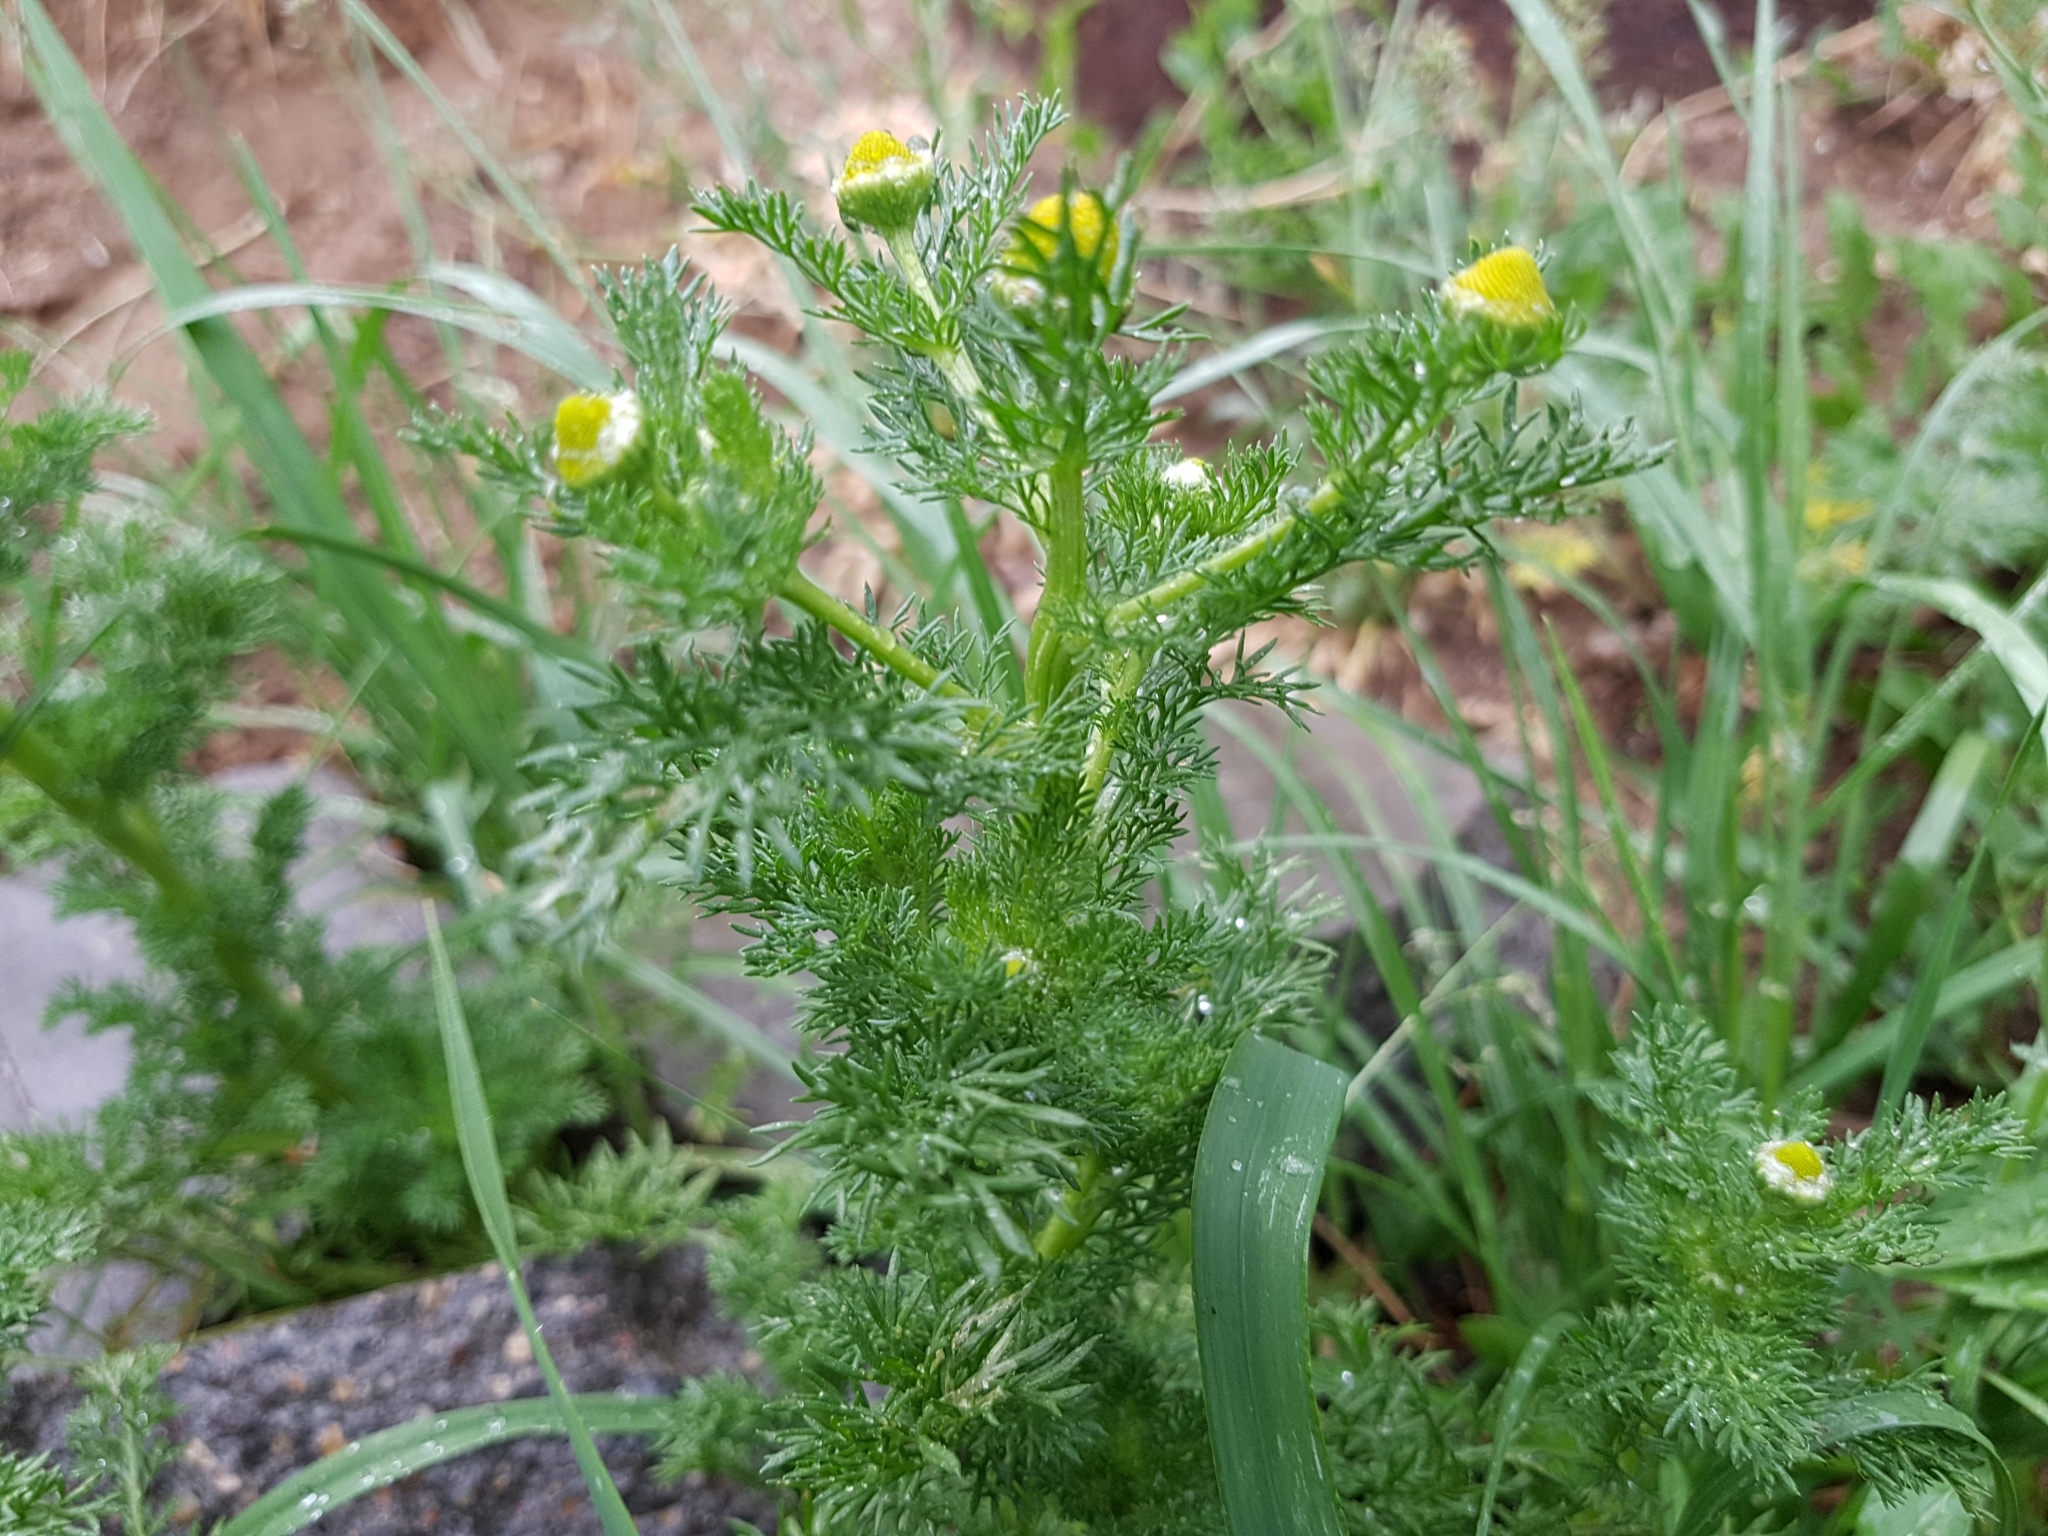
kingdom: Plantae
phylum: Tracheophyta
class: Magnoliopsida
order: Asterales
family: Asteraceae
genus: Matricaria
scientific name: Matricaria discoidea
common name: Disc mayweed
